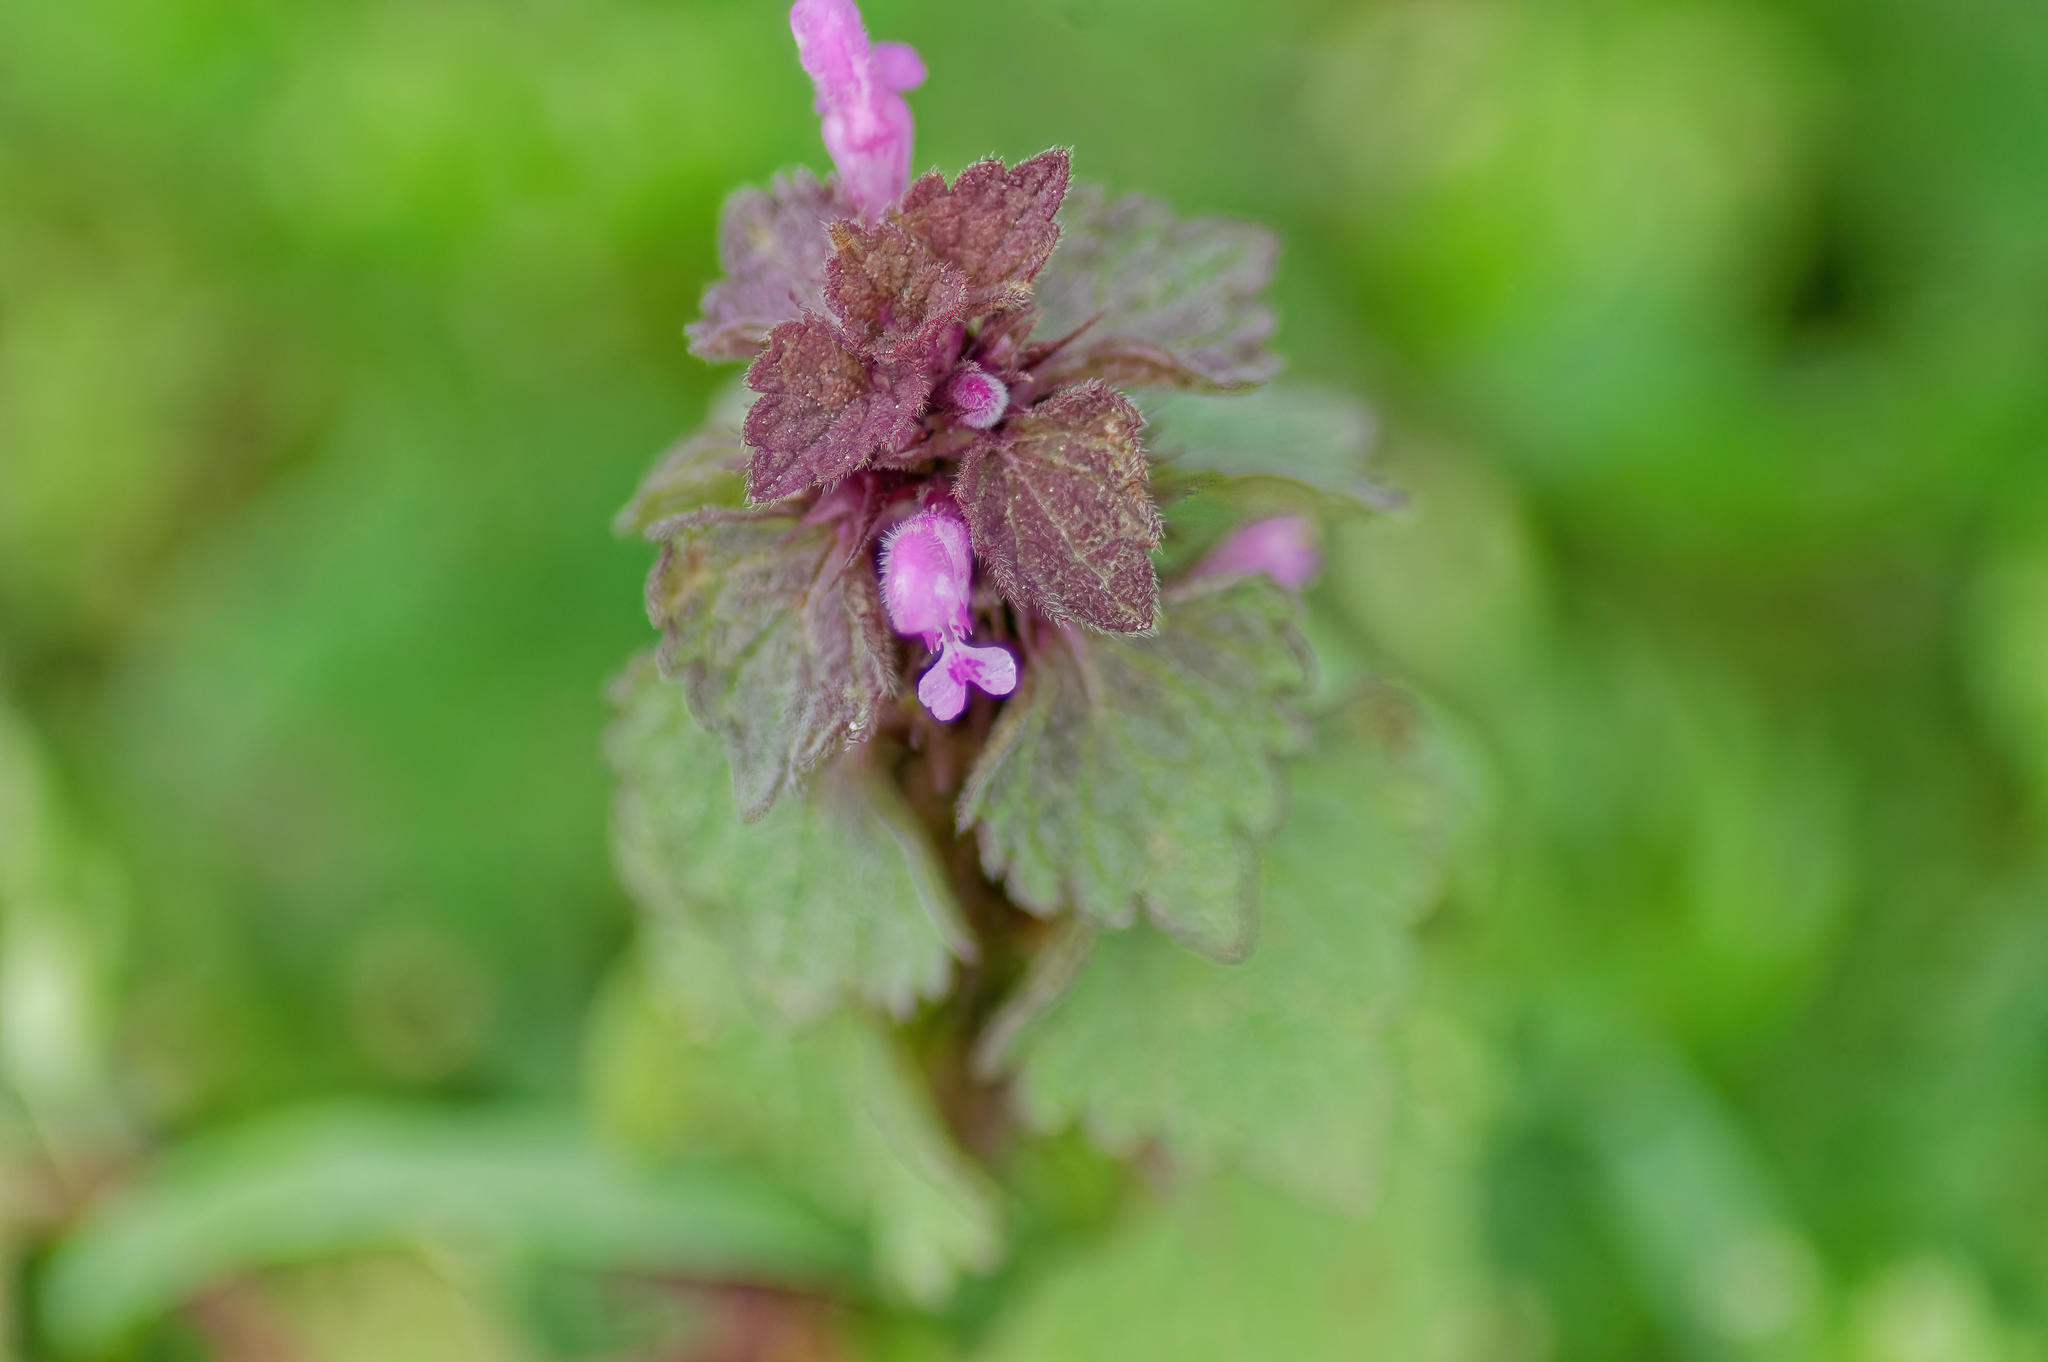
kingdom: Plantae
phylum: Tracheophyta
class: Magnoliopsida
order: Lamiales
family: Lamiaceae
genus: Lamium
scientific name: Lamium purpureum
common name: Red dead-nettle
